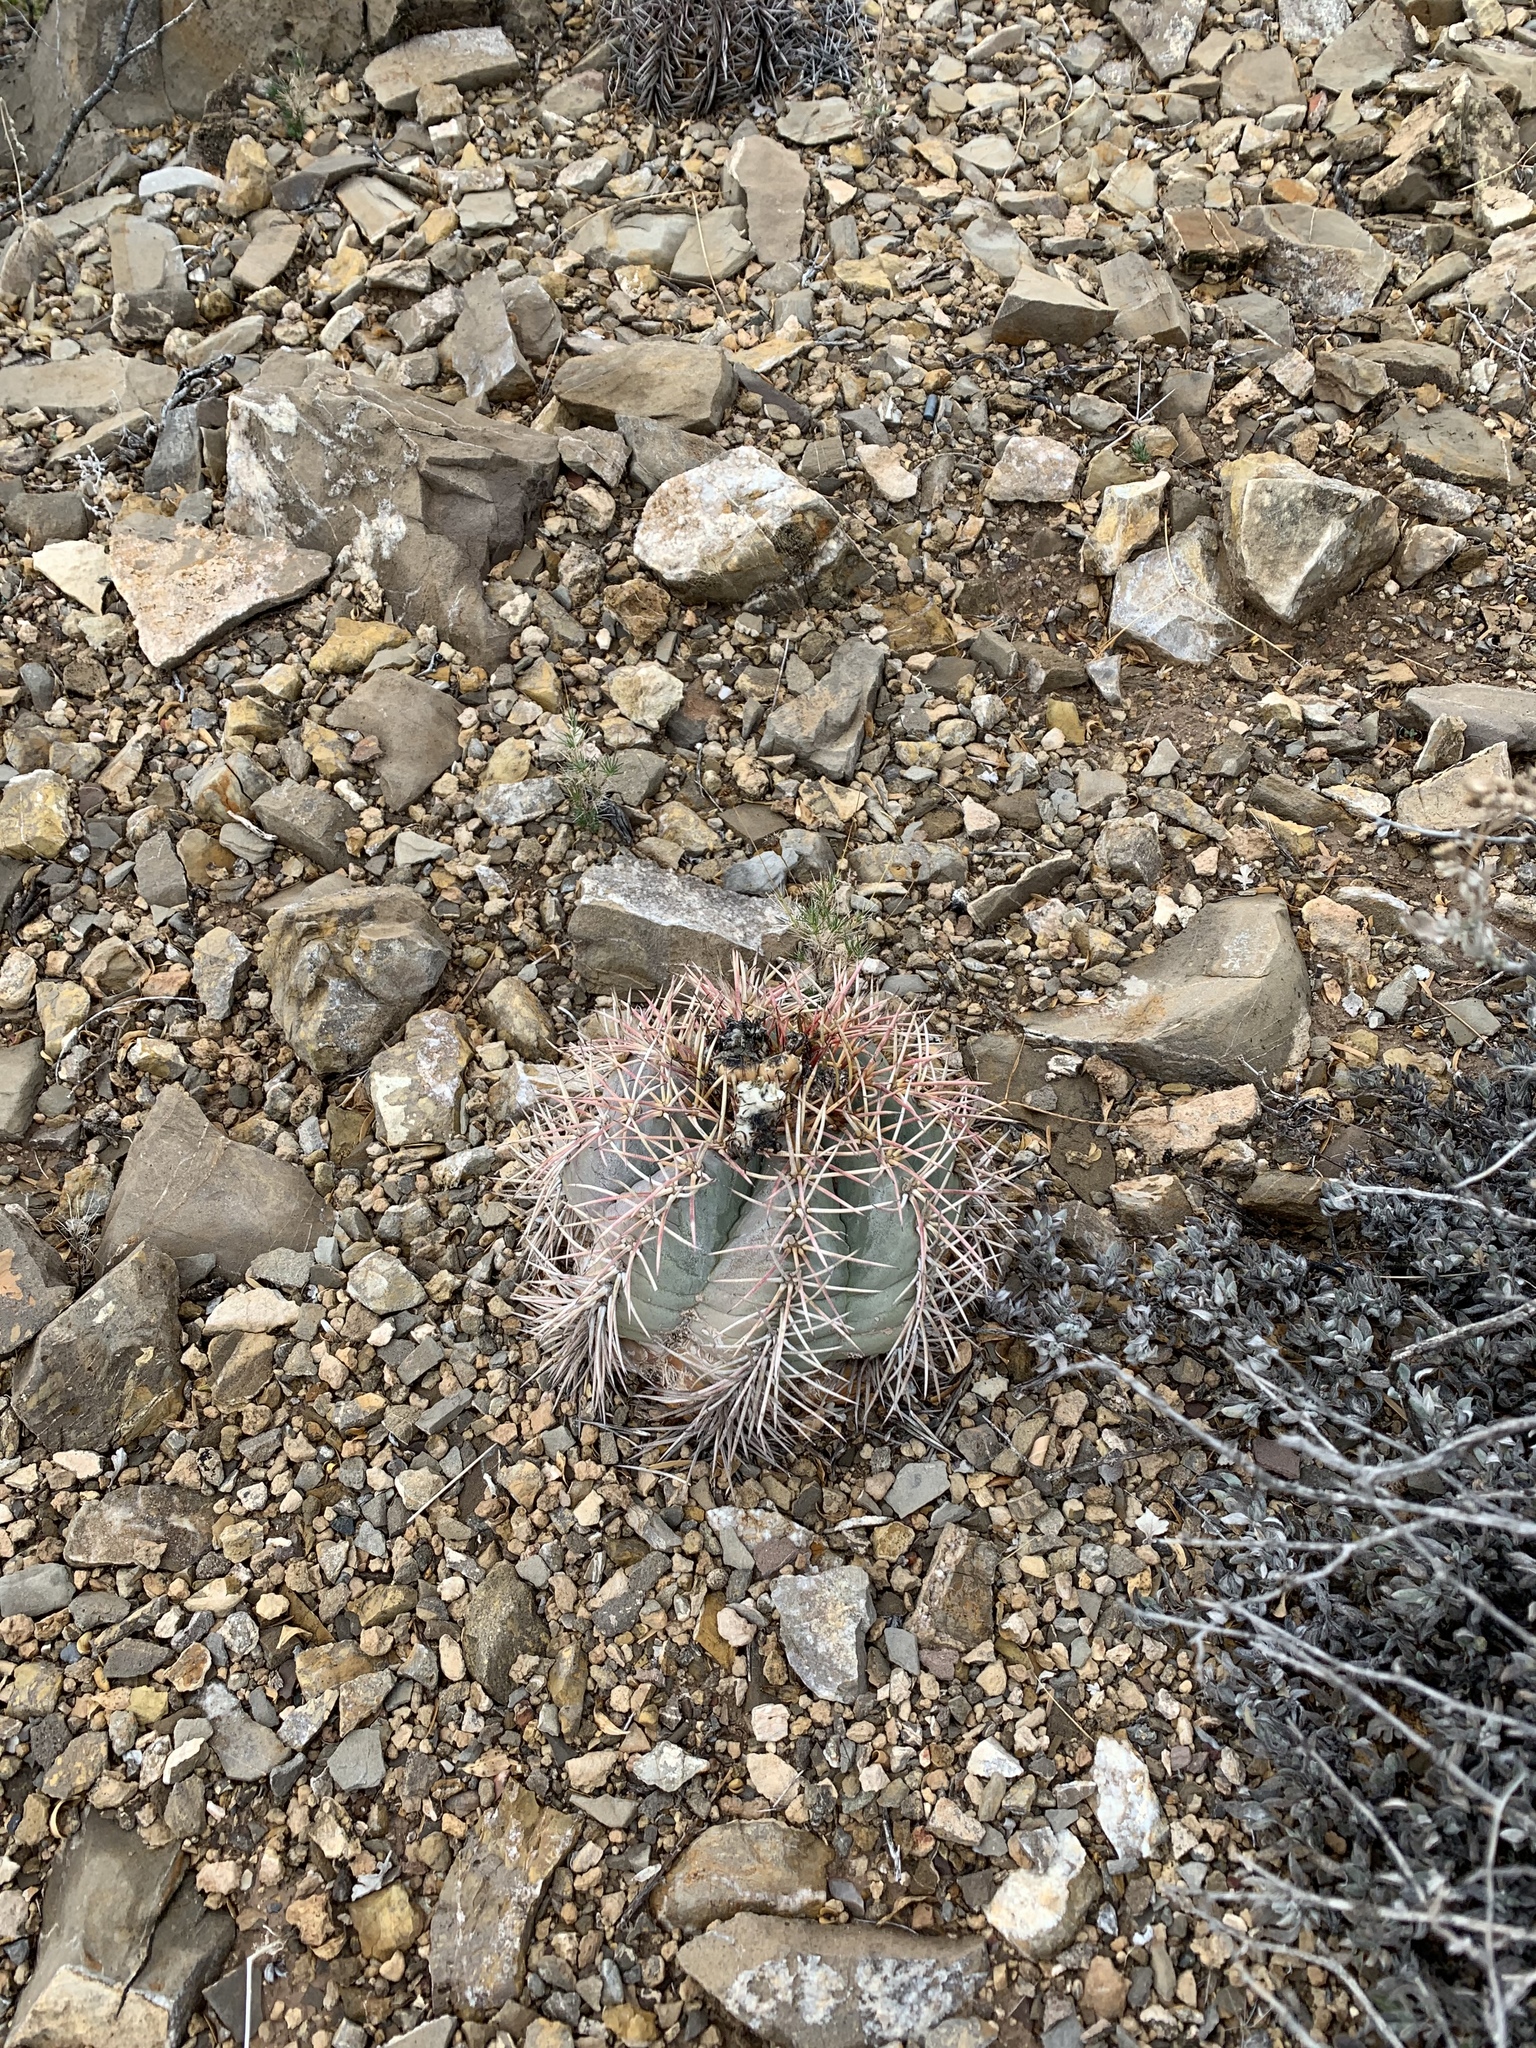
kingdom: Plantae
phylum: Tracheophyta
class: Magnoliopsida
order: Caryophyllales
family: Cactaceae
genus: Echinocactus
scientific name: Echinocactus horizonthalonius
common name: Devilshead
